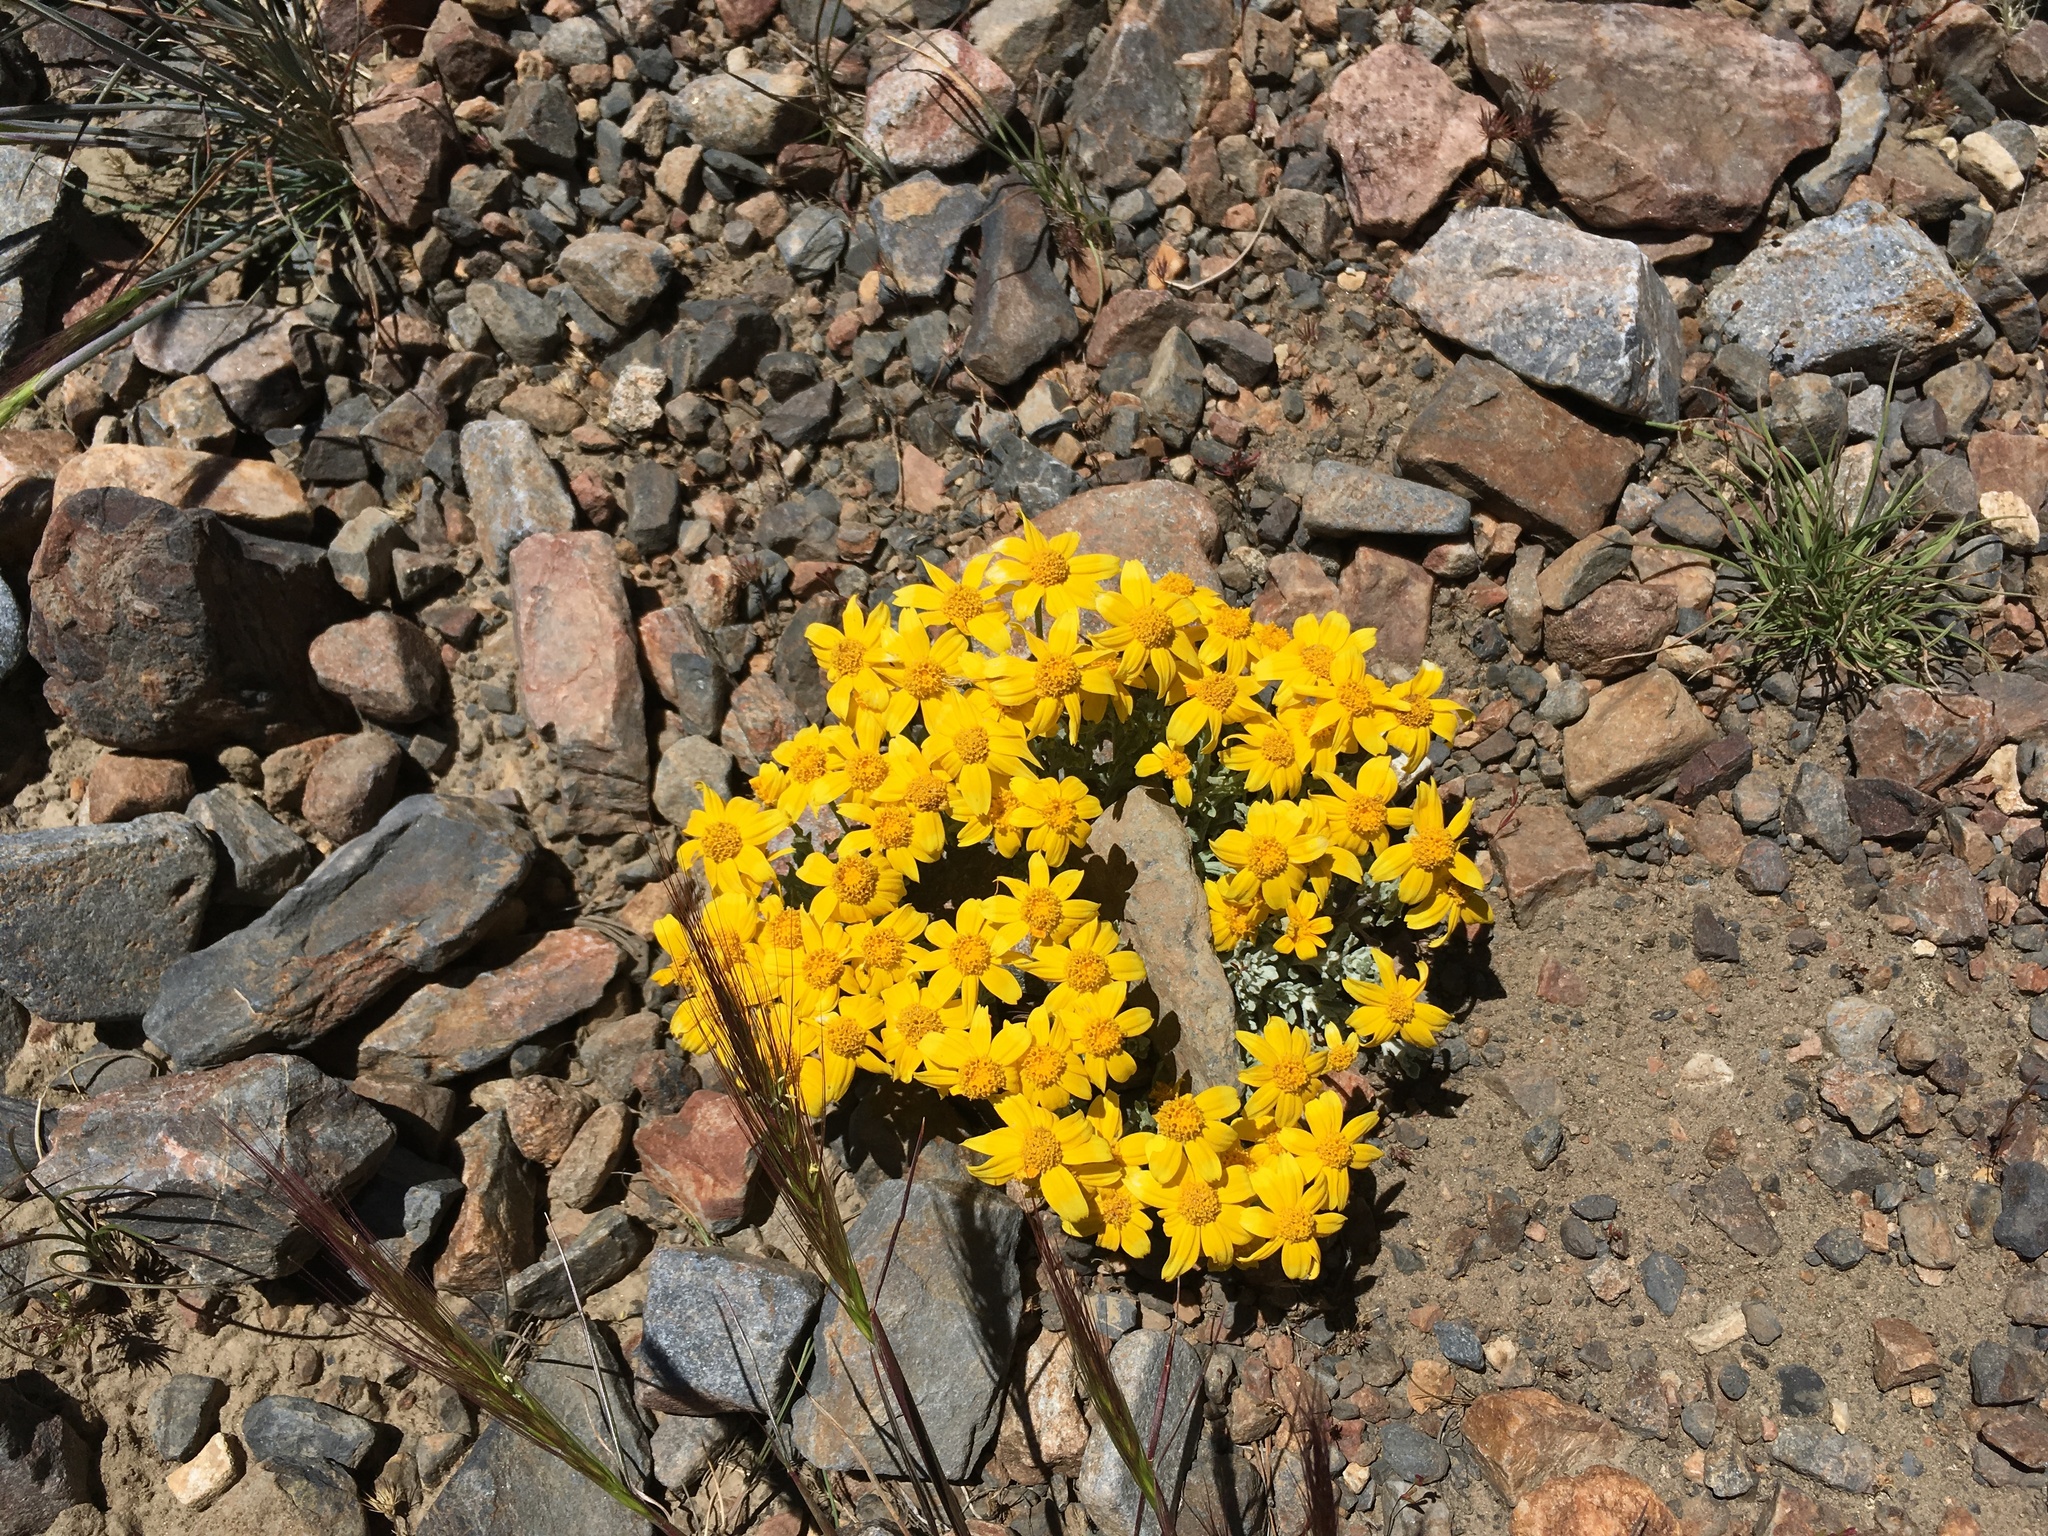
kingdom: Plantae
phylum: Tracheophyta
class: Magnoliopsida
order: Asterales
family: Asteraceae
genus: Eriophyllum
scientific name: Eriophyllum lanatum
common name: Common woolly-sunflower
